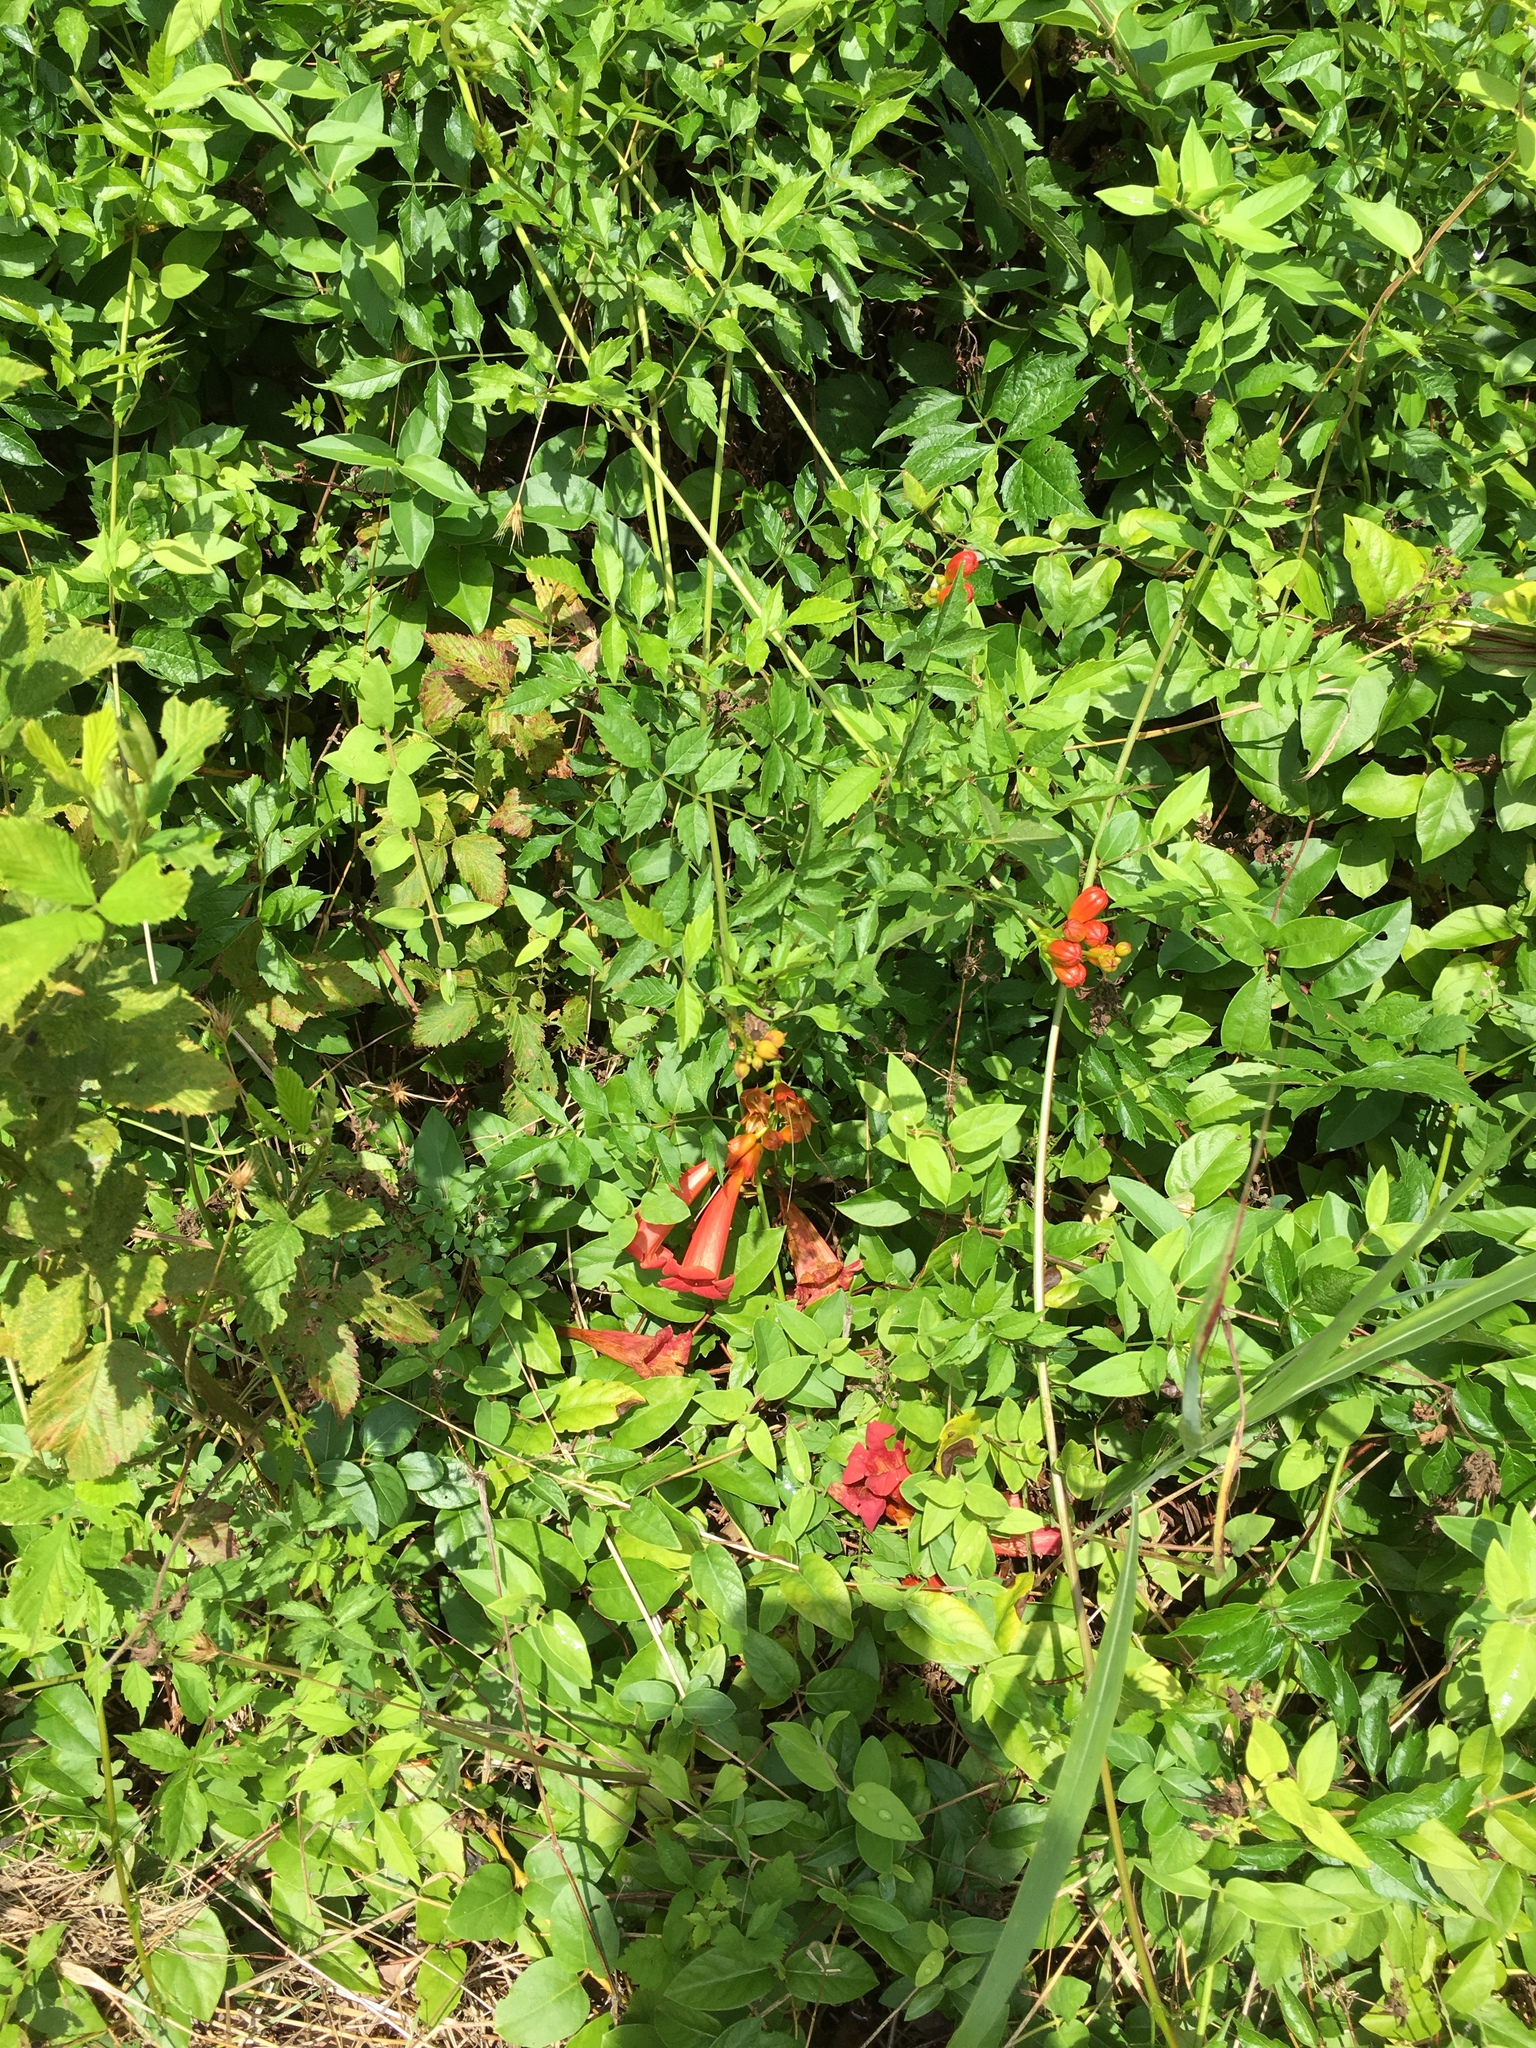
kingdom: Plantae
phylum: Tracheophyta
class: Magnoliopsida
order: Lamiales
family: Bignoniaceae
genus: Campsis
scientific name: Campsis radicans
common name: Trumpet-creeper
